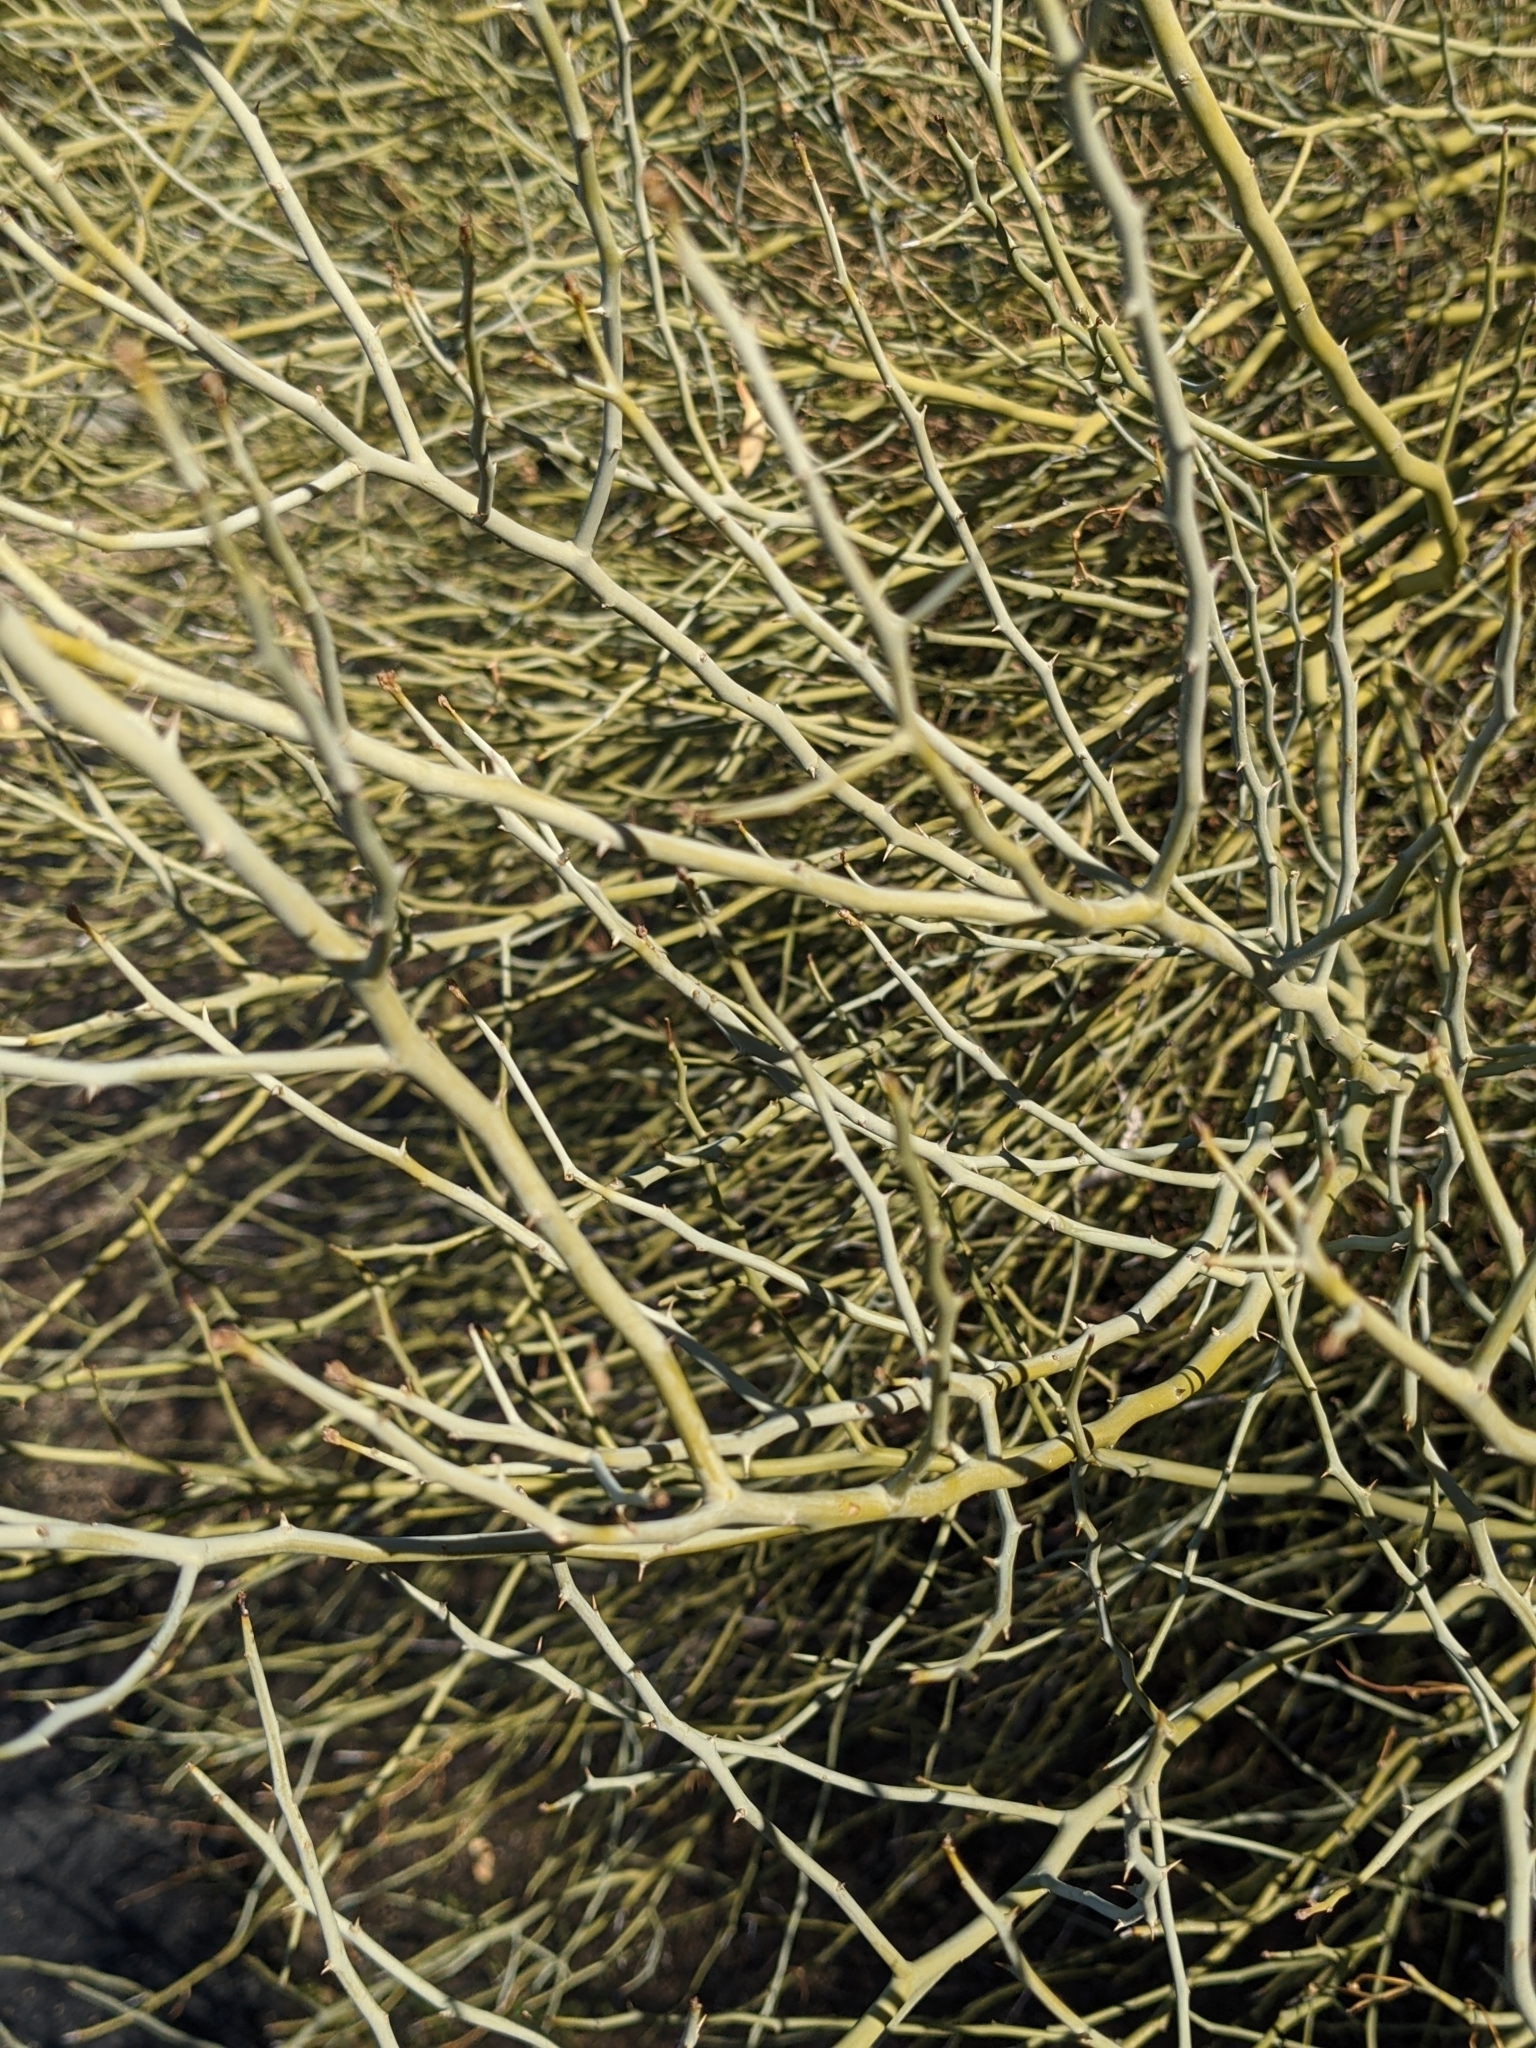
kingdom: Plantae
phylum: Tracheophyta
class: Magnoliopsida
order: Fabales
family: Fabaceae
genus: Parkinsonia
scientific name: Parkinsonia florida
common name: Blue paloverde
